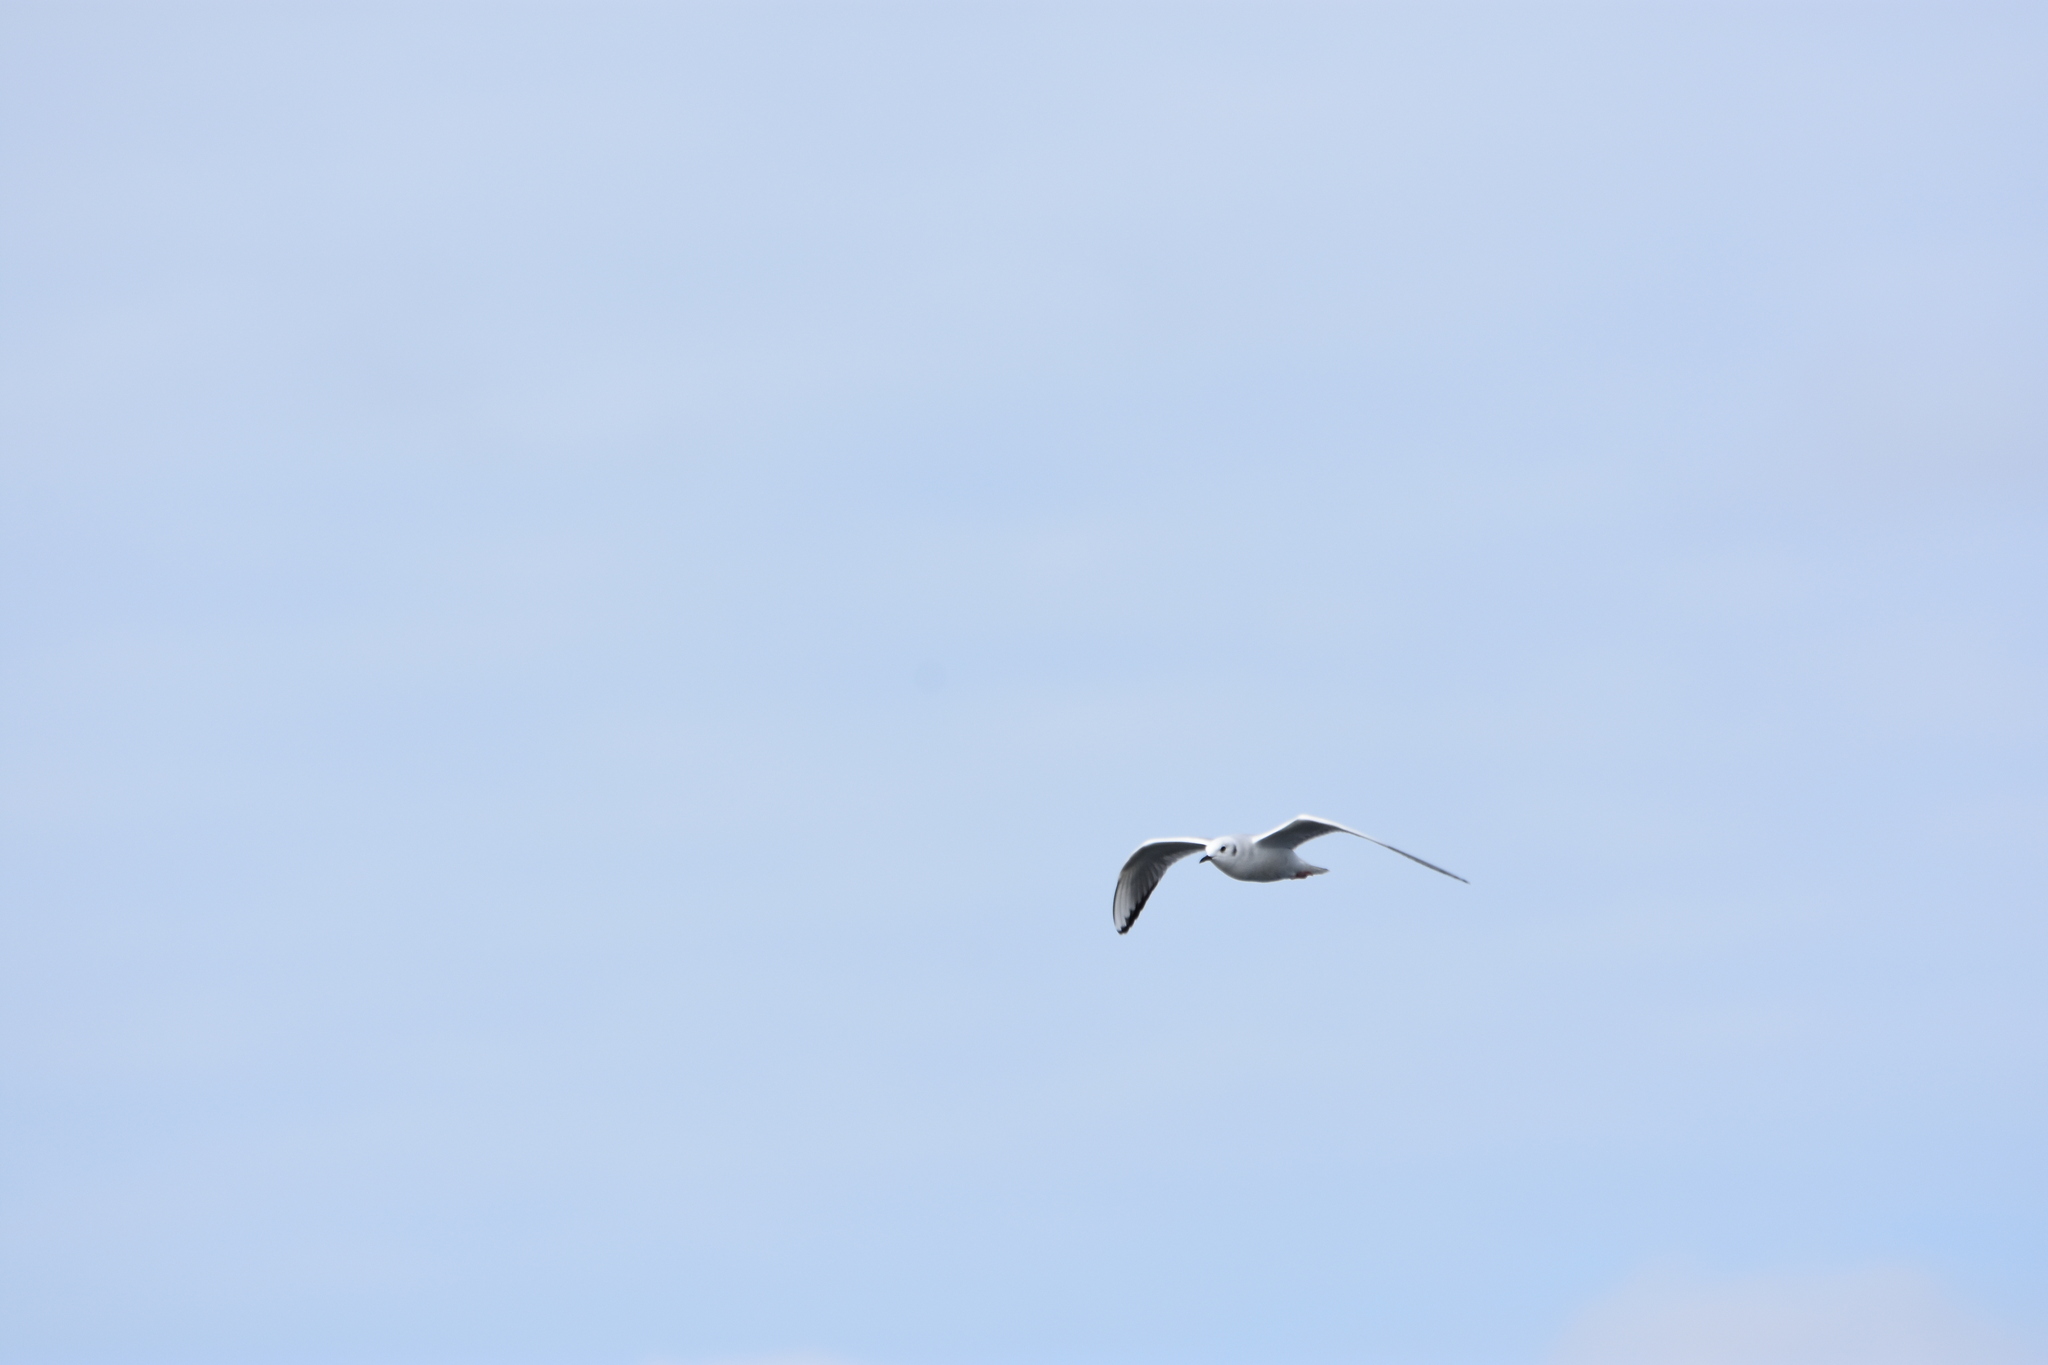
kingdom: Animalia
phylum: Chordata
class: Aves
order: Charadriiformes
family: Laridae
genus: Chroicocephalus
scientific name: Chroicocephalus philadelphia
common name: Bonaparte's gull
